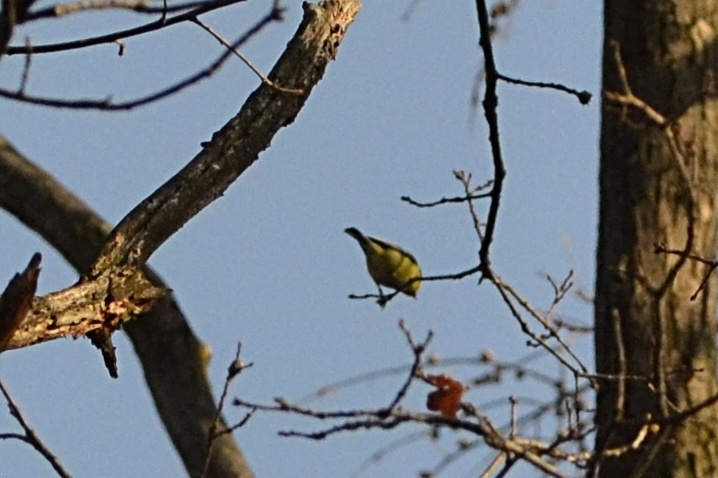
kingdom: Animalia
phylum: Chordata
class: Aves
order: Passeriformes
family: Paridae
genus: Cyanistes
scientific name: Cyanistes caeruleus
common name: Eurasian blue tit
